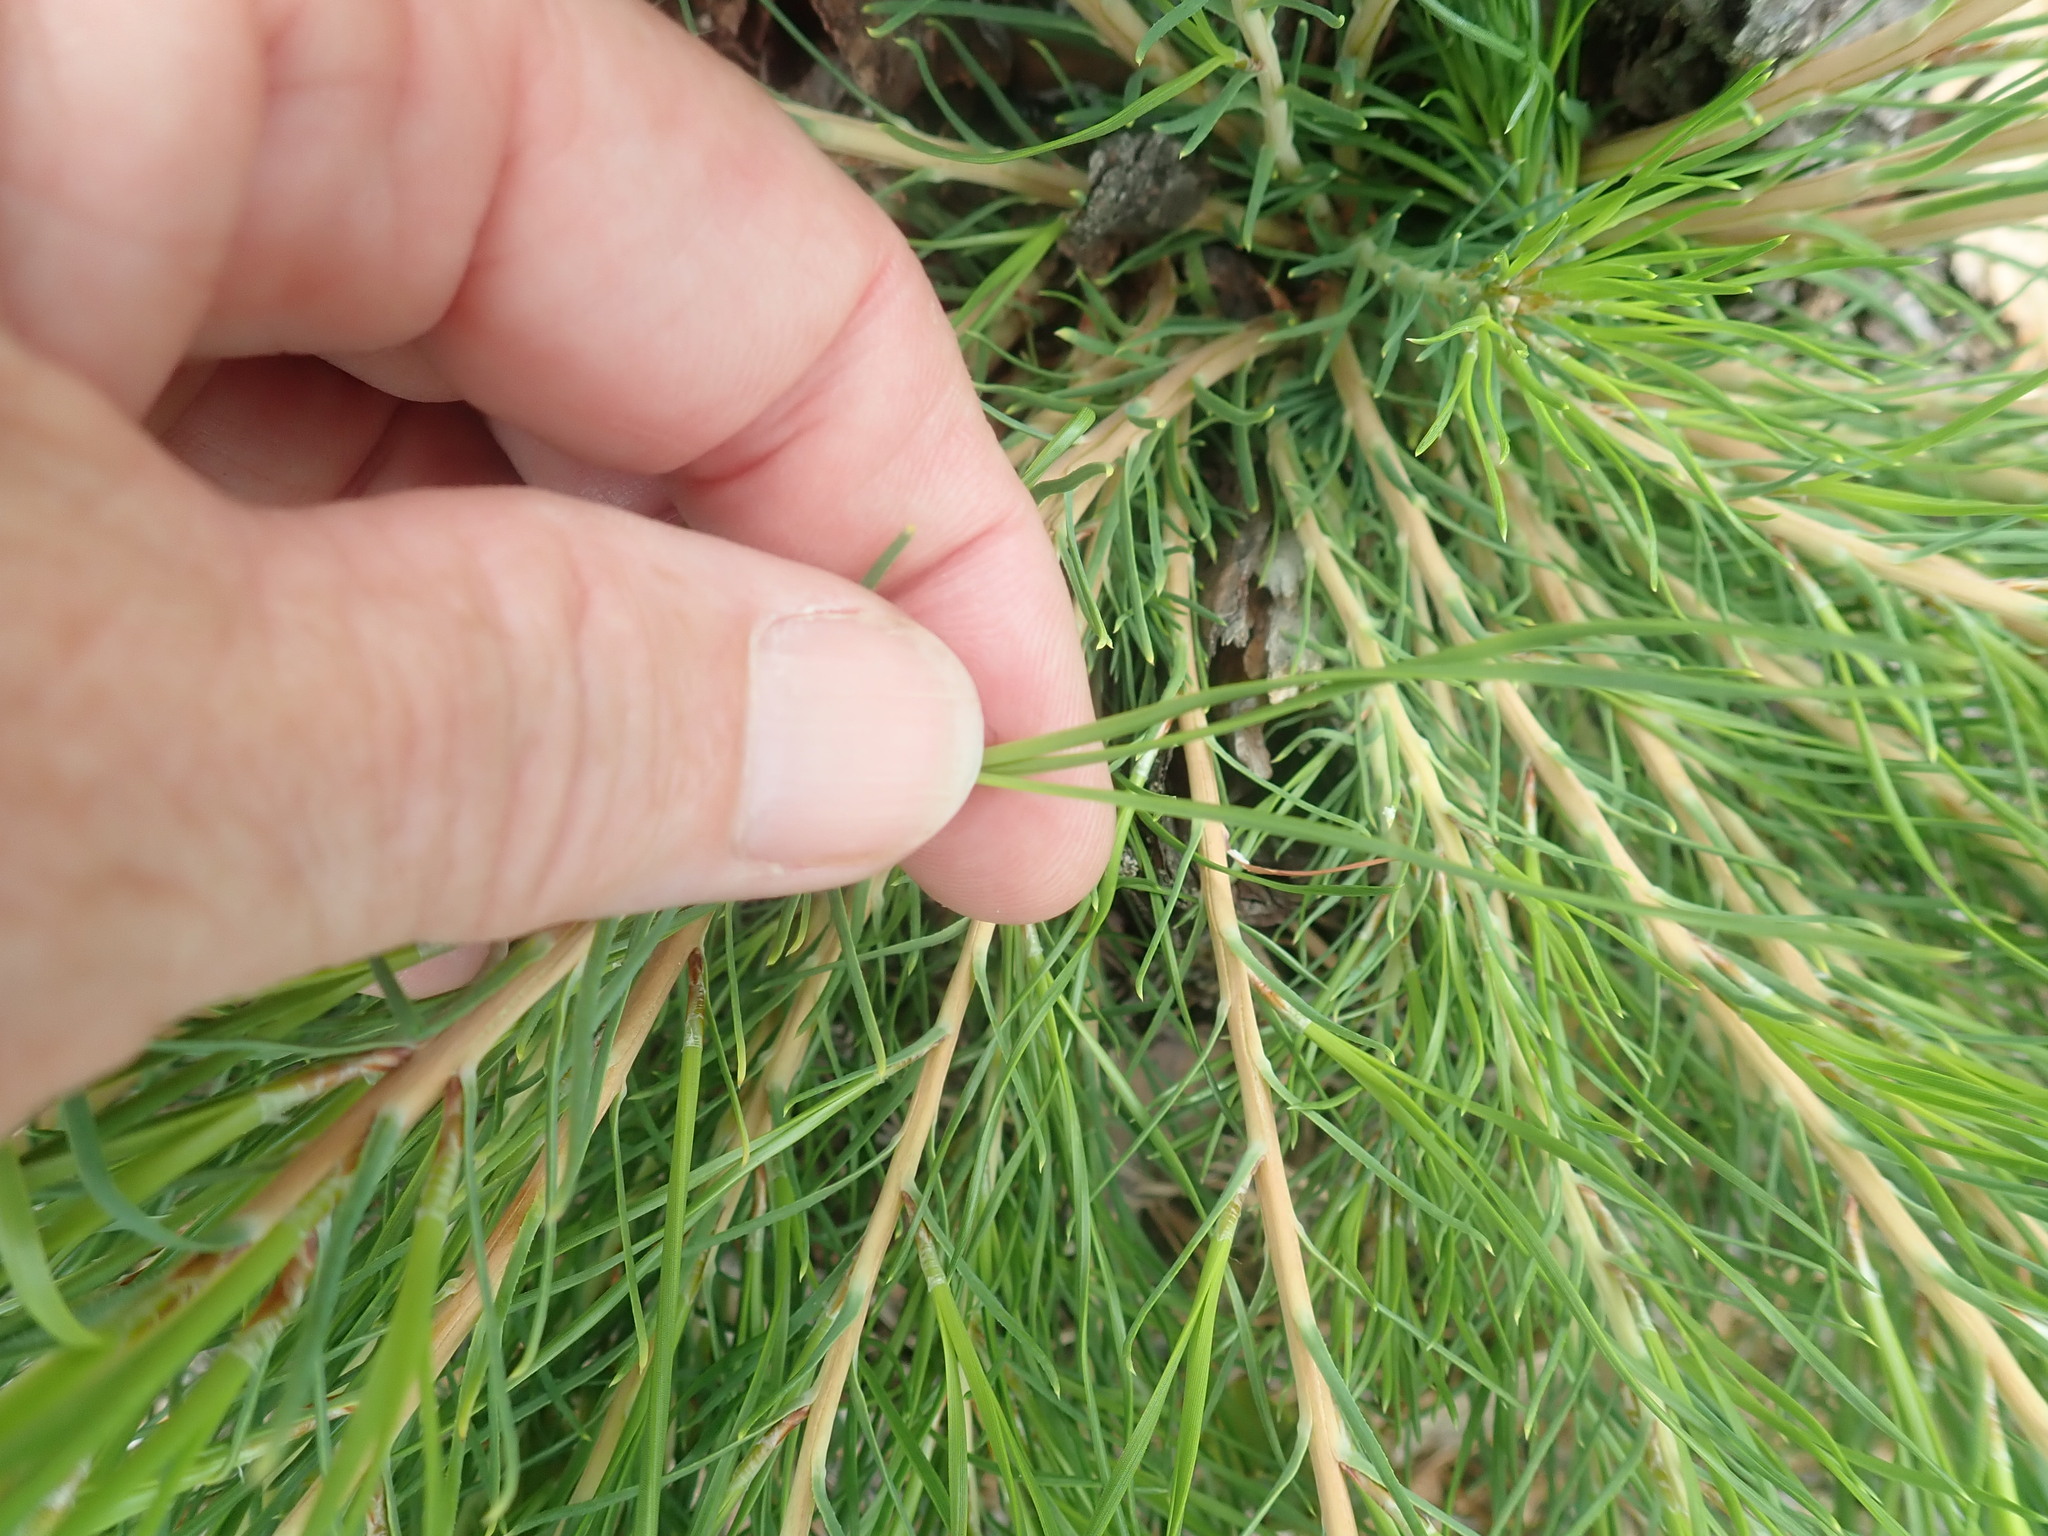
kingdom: Plantae
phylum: Tracheophyta
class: Pinopsida
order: Pinales
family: Pinaceae
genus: Pinus
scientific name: Pinus rigida
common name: Pitch pine
